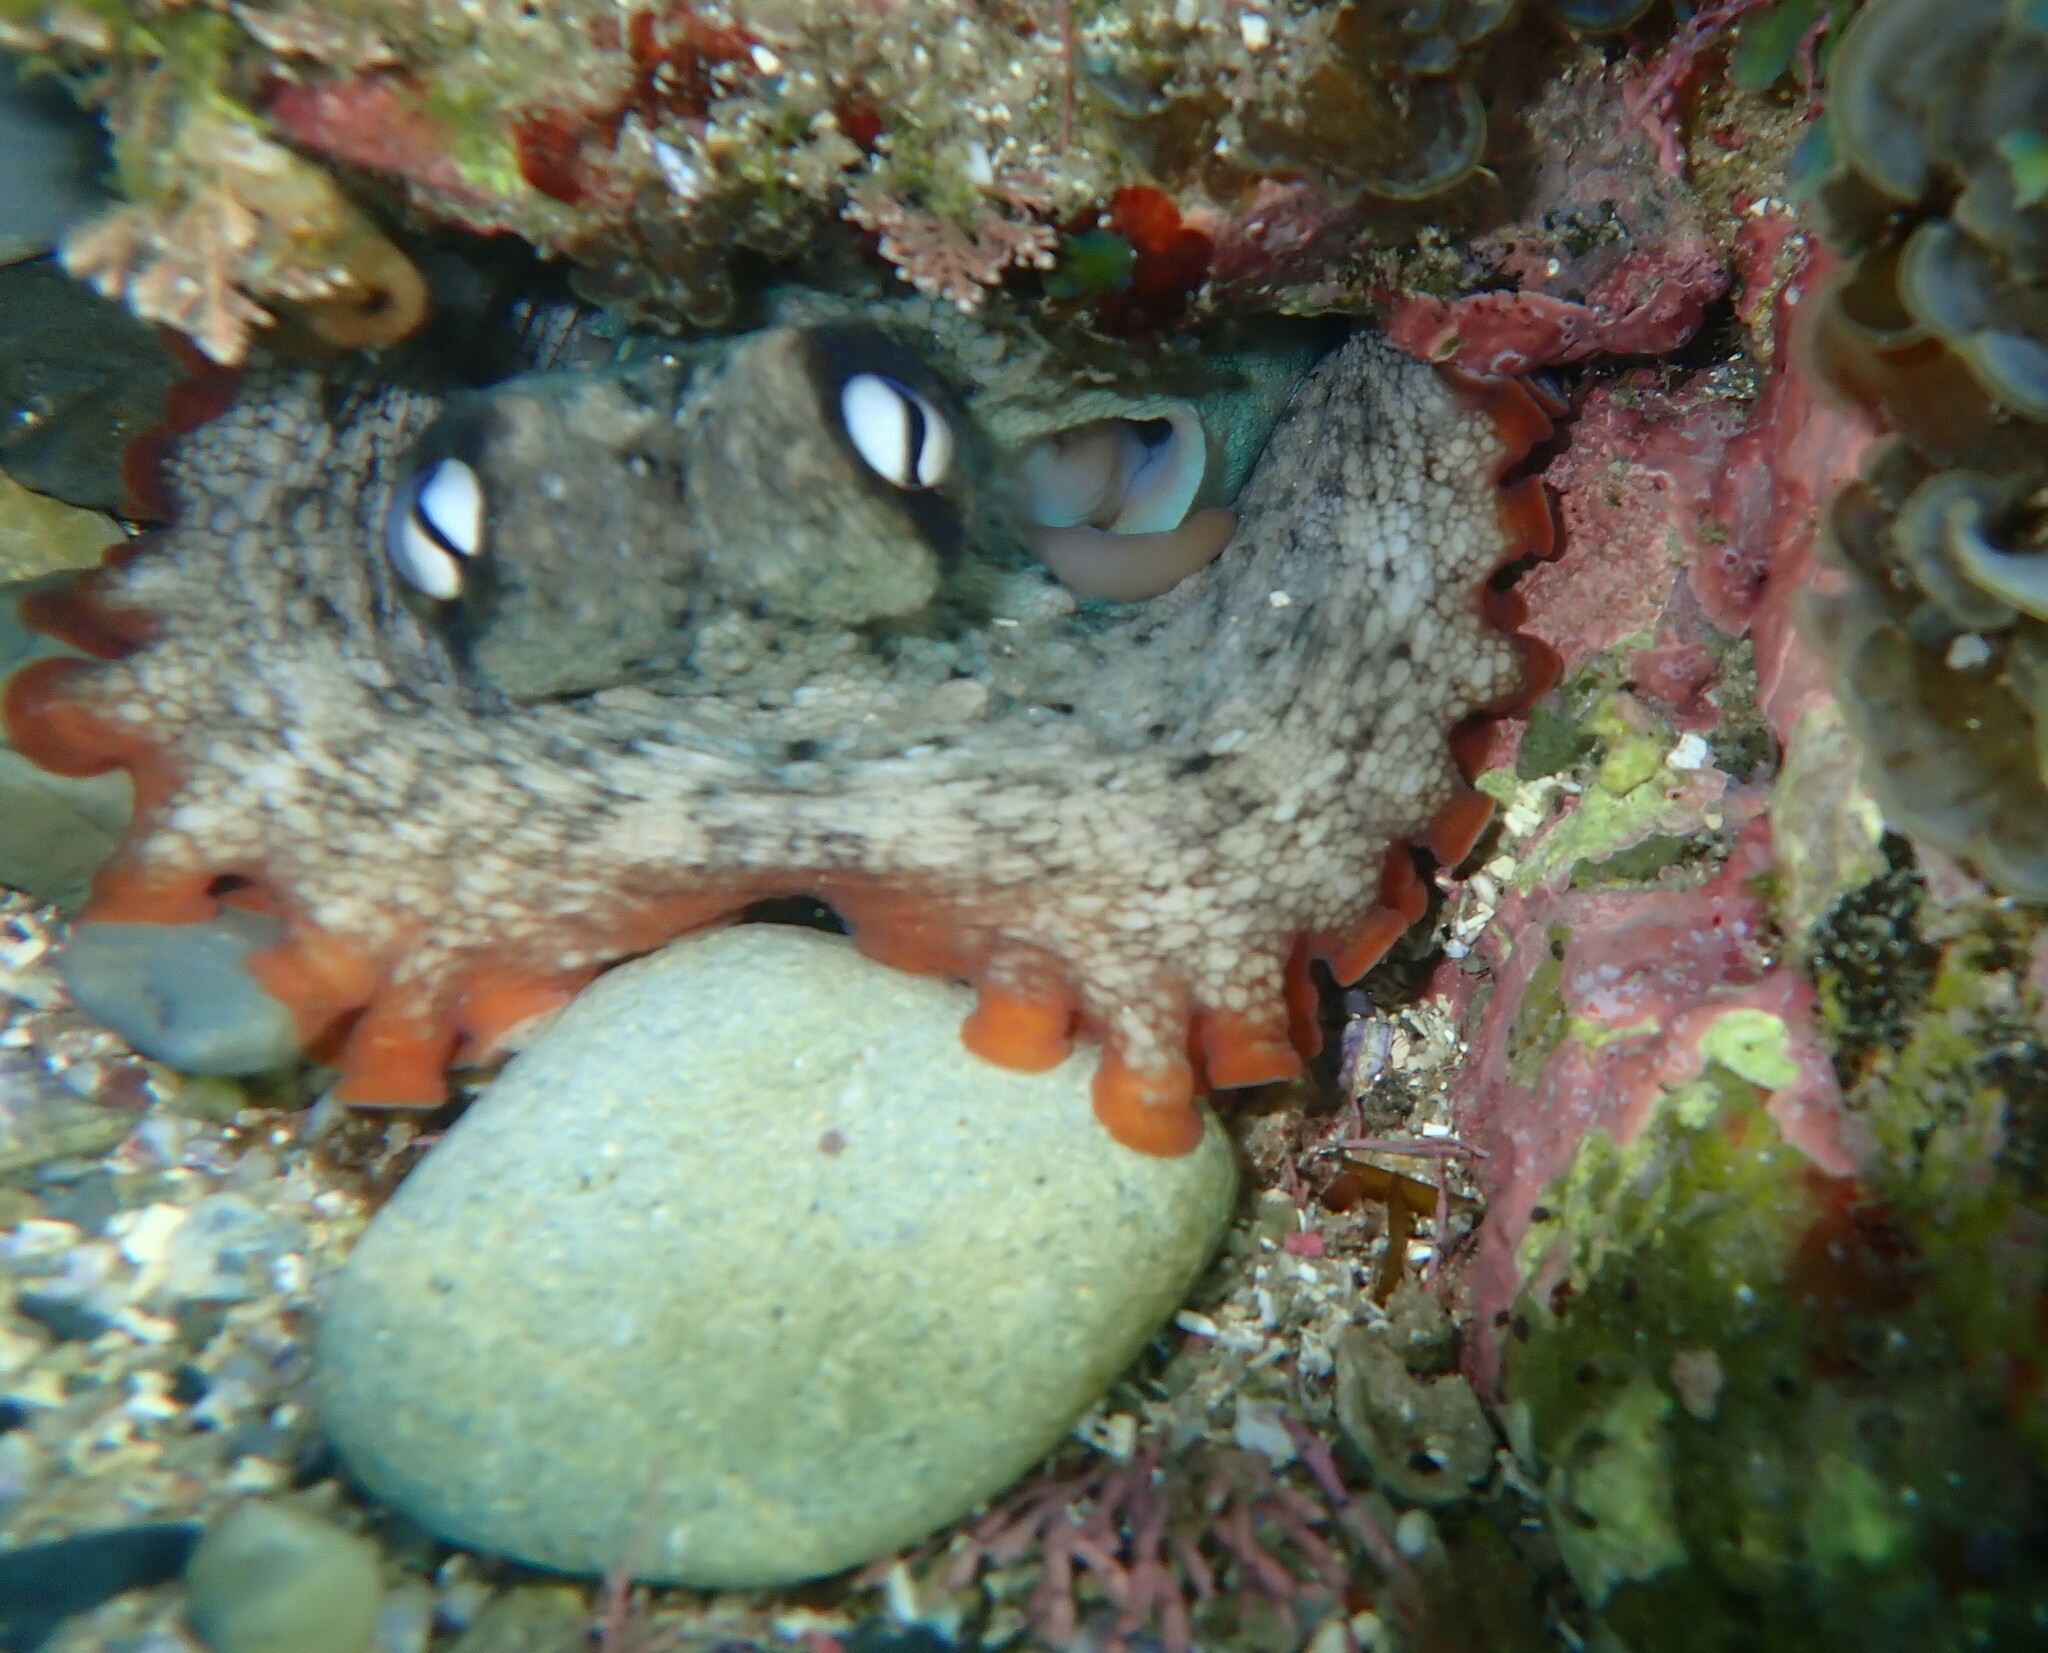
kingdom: Animalia
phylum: Mollusca
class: Cephalopoda
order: Octopoda
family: Octopodidae
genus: Octopus
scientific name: Octopus tetricus
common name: Sydney octopus
